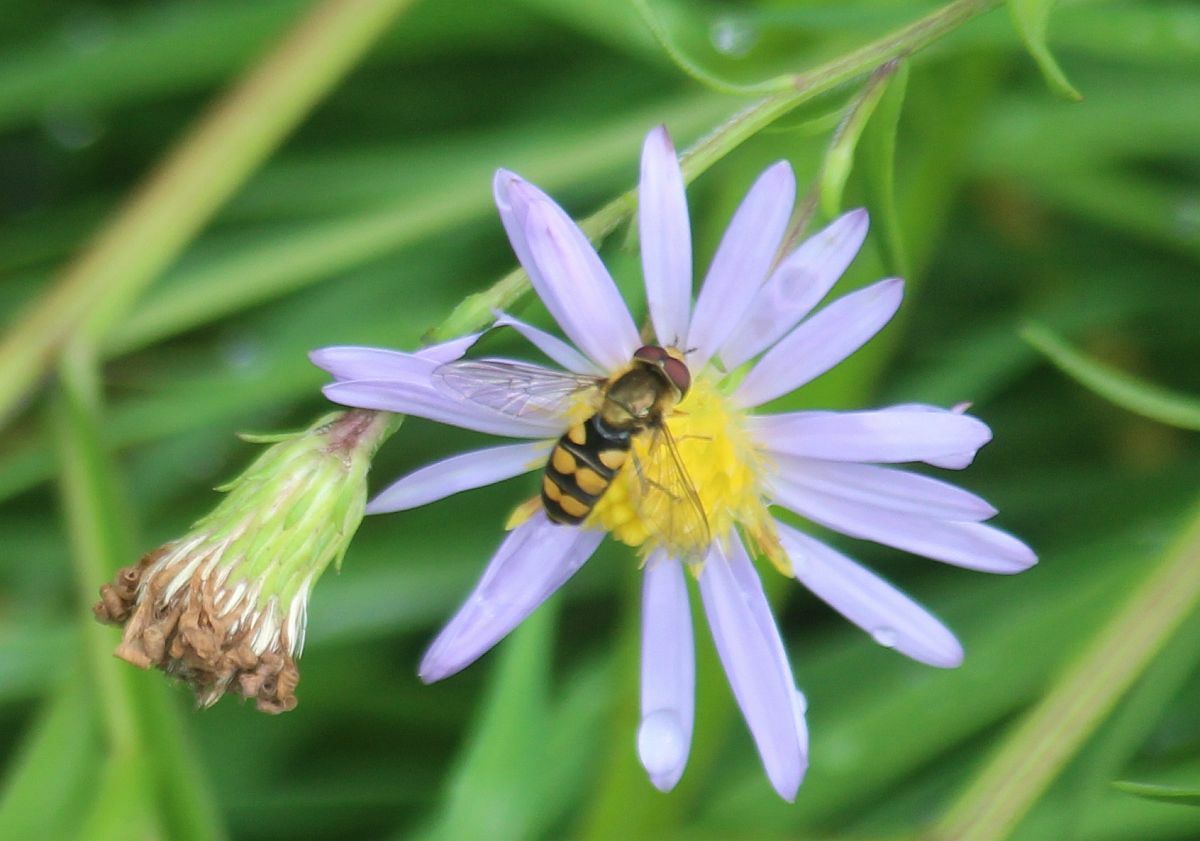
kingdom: Animalia
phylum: Arthropoda
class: Insecta
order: Diptera
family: Syrphidae
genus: Eupeodes
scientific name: Eupeodes
